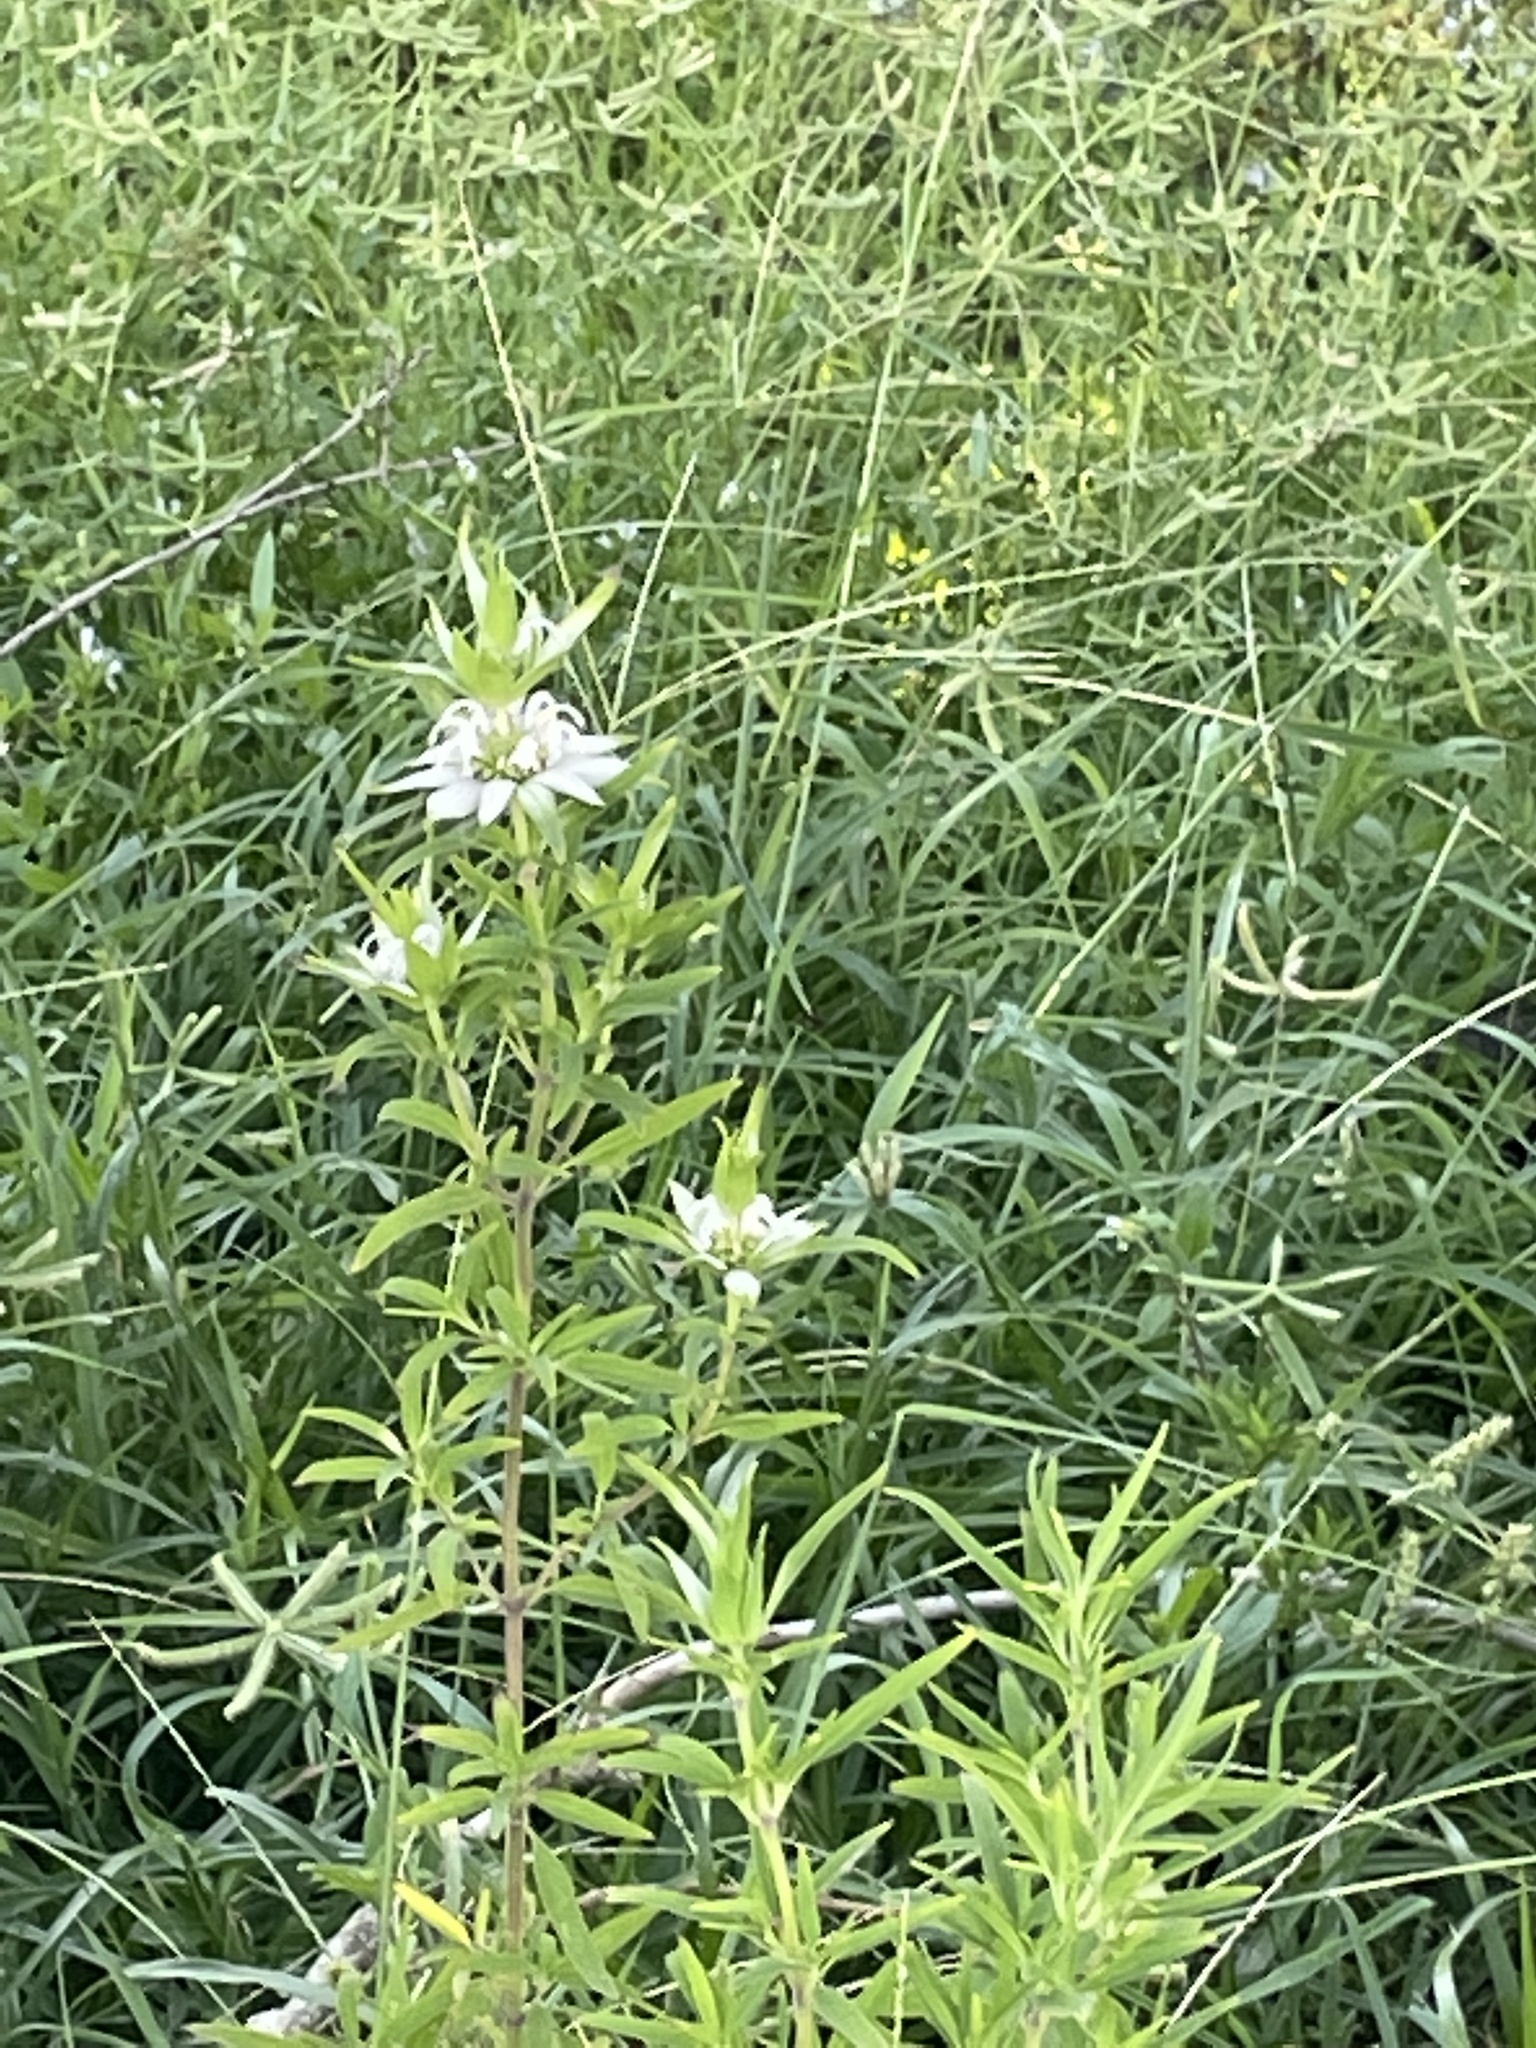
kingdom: Plantae
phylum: Tracheophyta
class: Magnoliopsida
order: Lamiales
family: Lamiaceae
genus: Monarda
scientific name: Monarda punctata
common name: Dotted monarda
